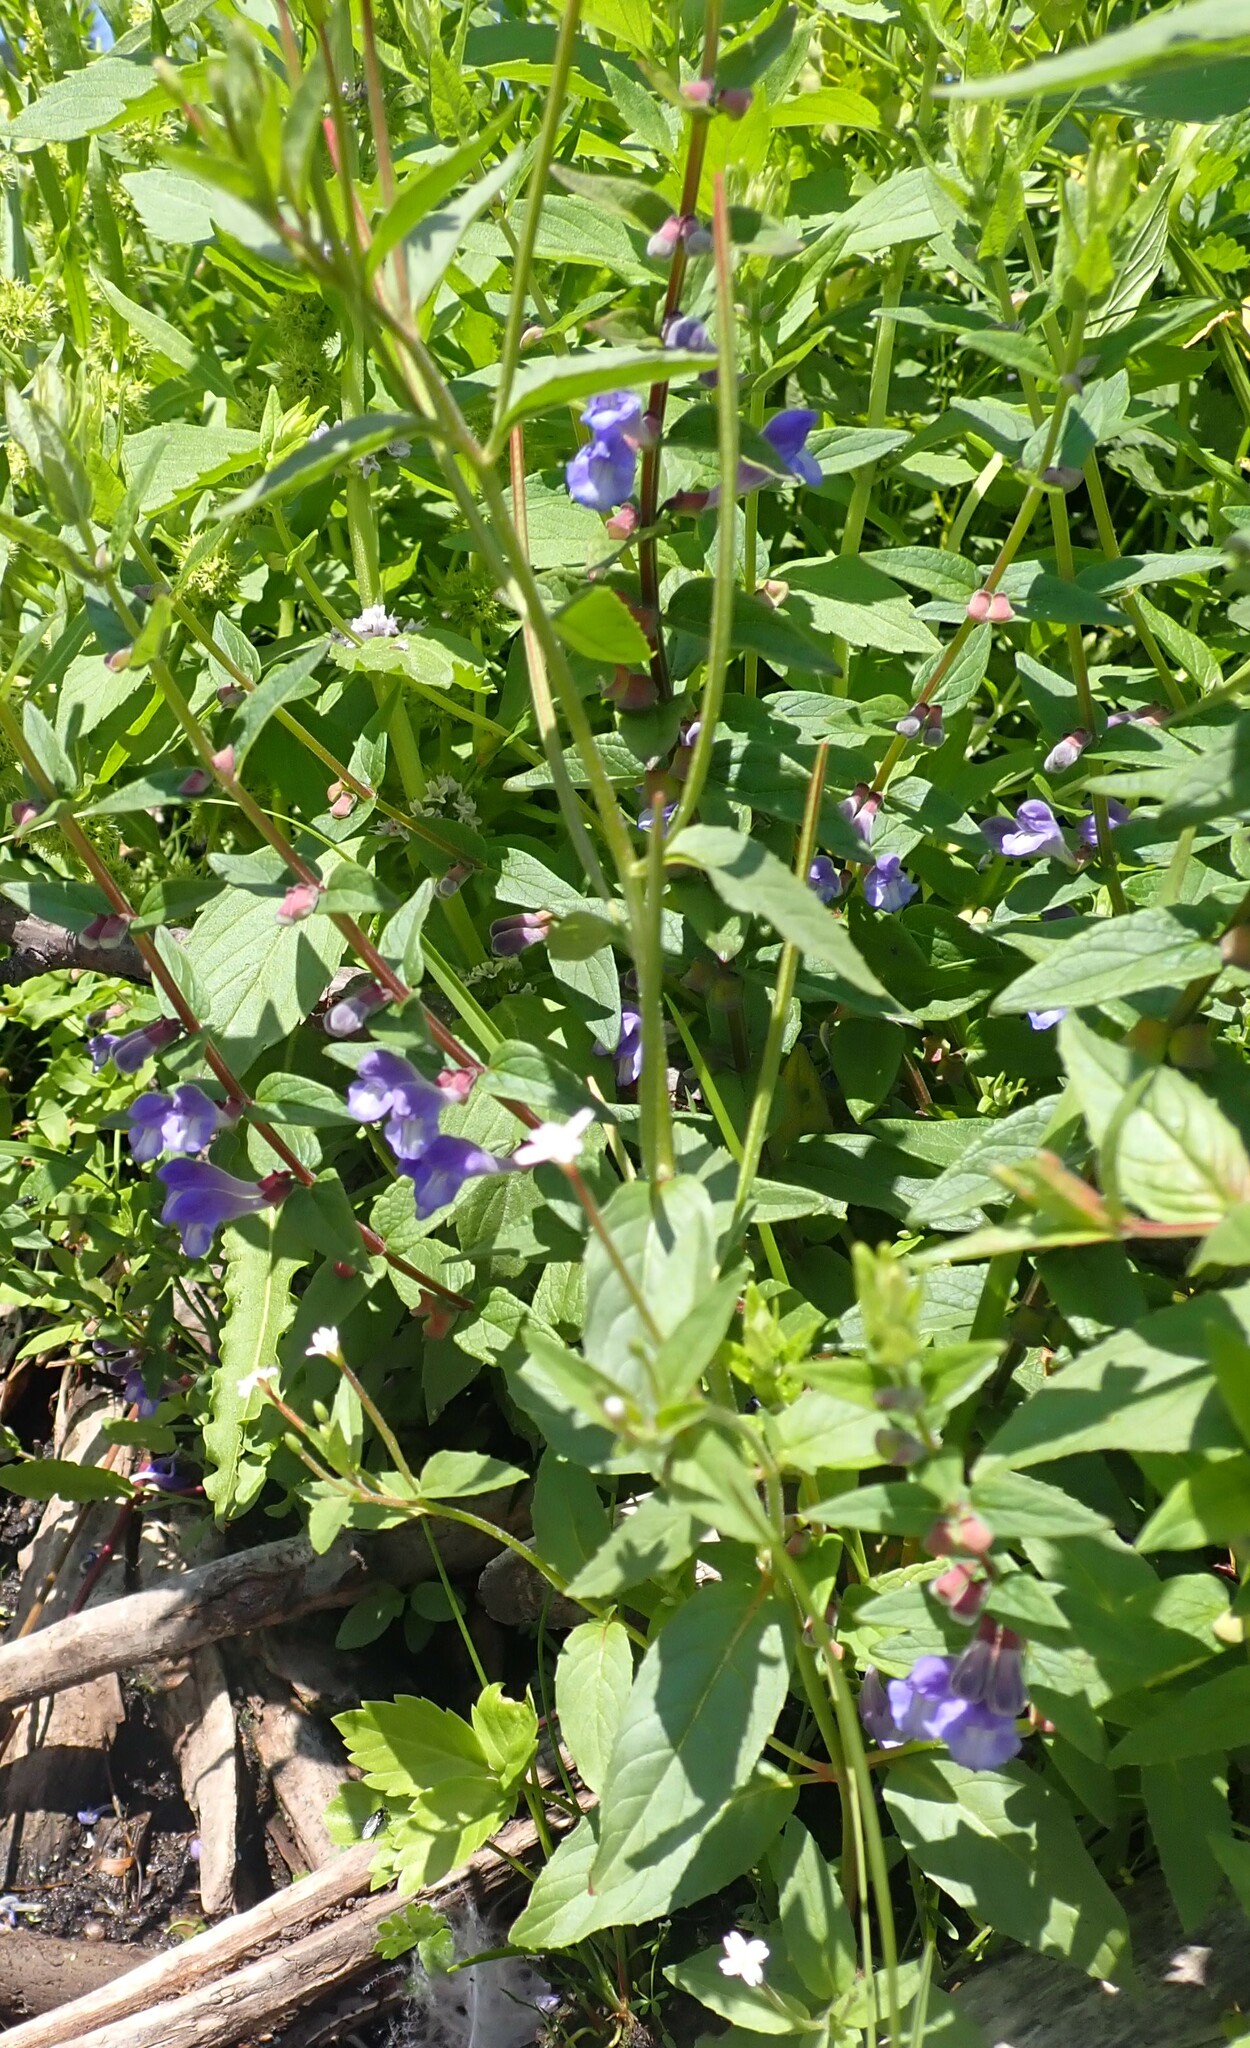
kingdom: Plantae
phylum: Tracheophyta
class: Magnoliopsida
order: Lamiales
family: Lamiaceae
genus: Scutellaria
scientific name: Scutellaria galericulata
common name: Skullcap
